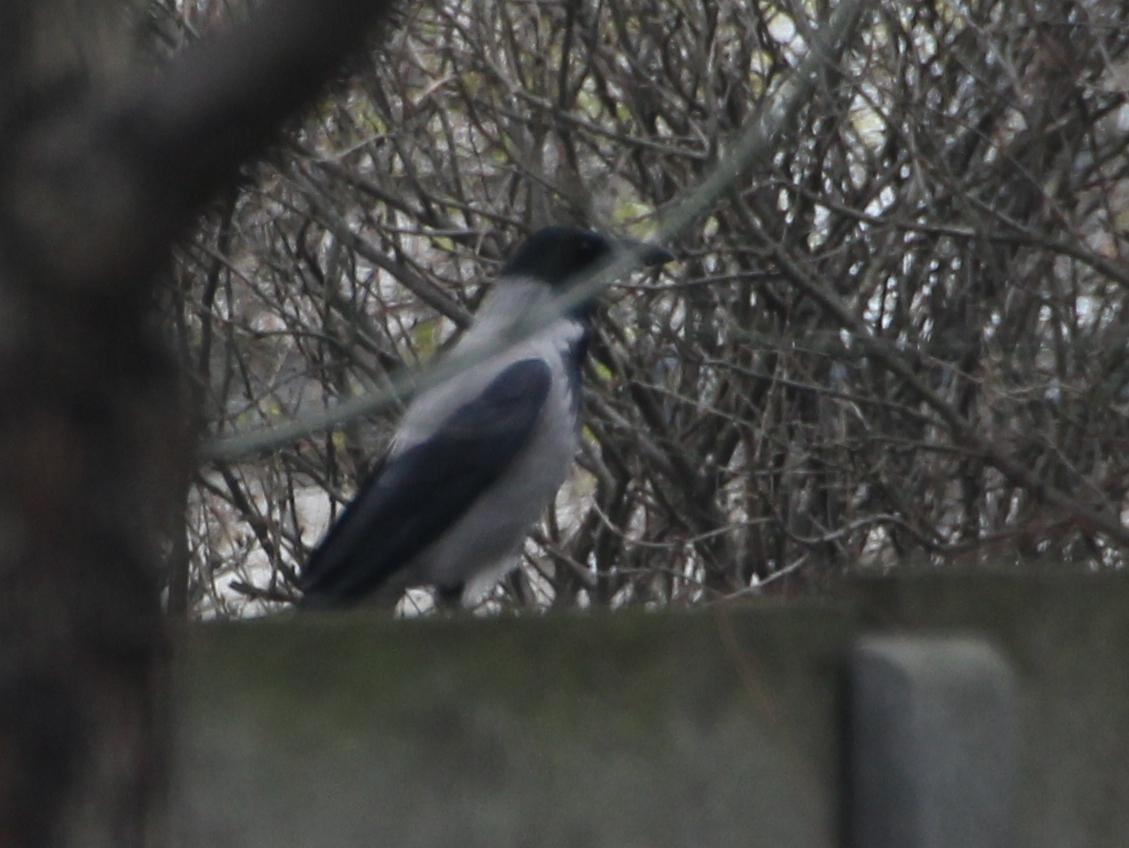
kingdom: Animalia
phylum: Chordata
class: Aves
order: Passeriformes
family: Corvidae
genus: Corvus
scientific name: Corvus cornix
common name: Hooded crow
